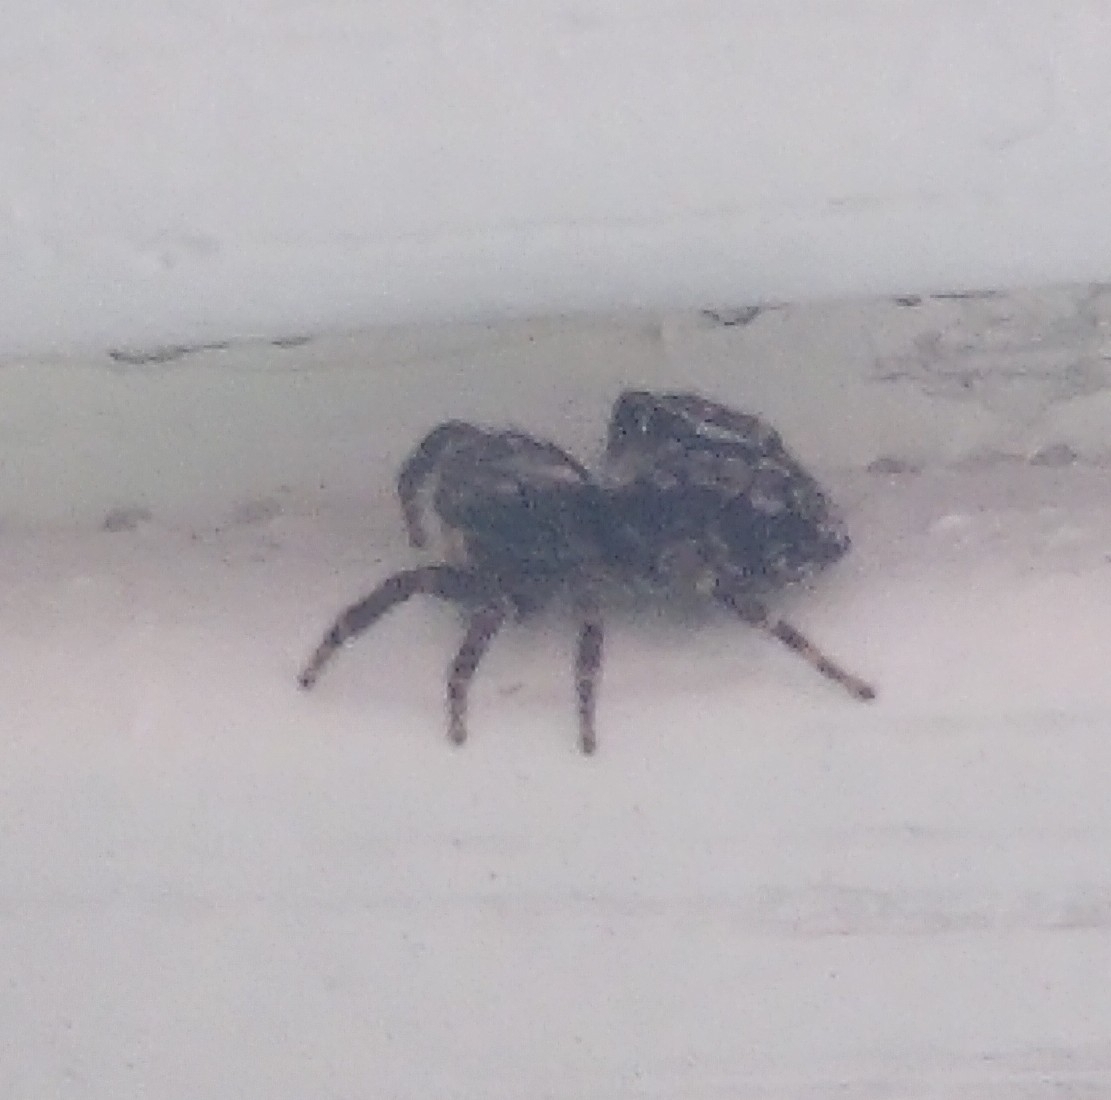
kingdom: Animalia
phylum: Arthropoda
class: Arachnida
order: Araneae
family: Salticidae
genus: Pseudeuophrys
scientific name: Pseudeuophrys lanigera
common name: Jumping spider
